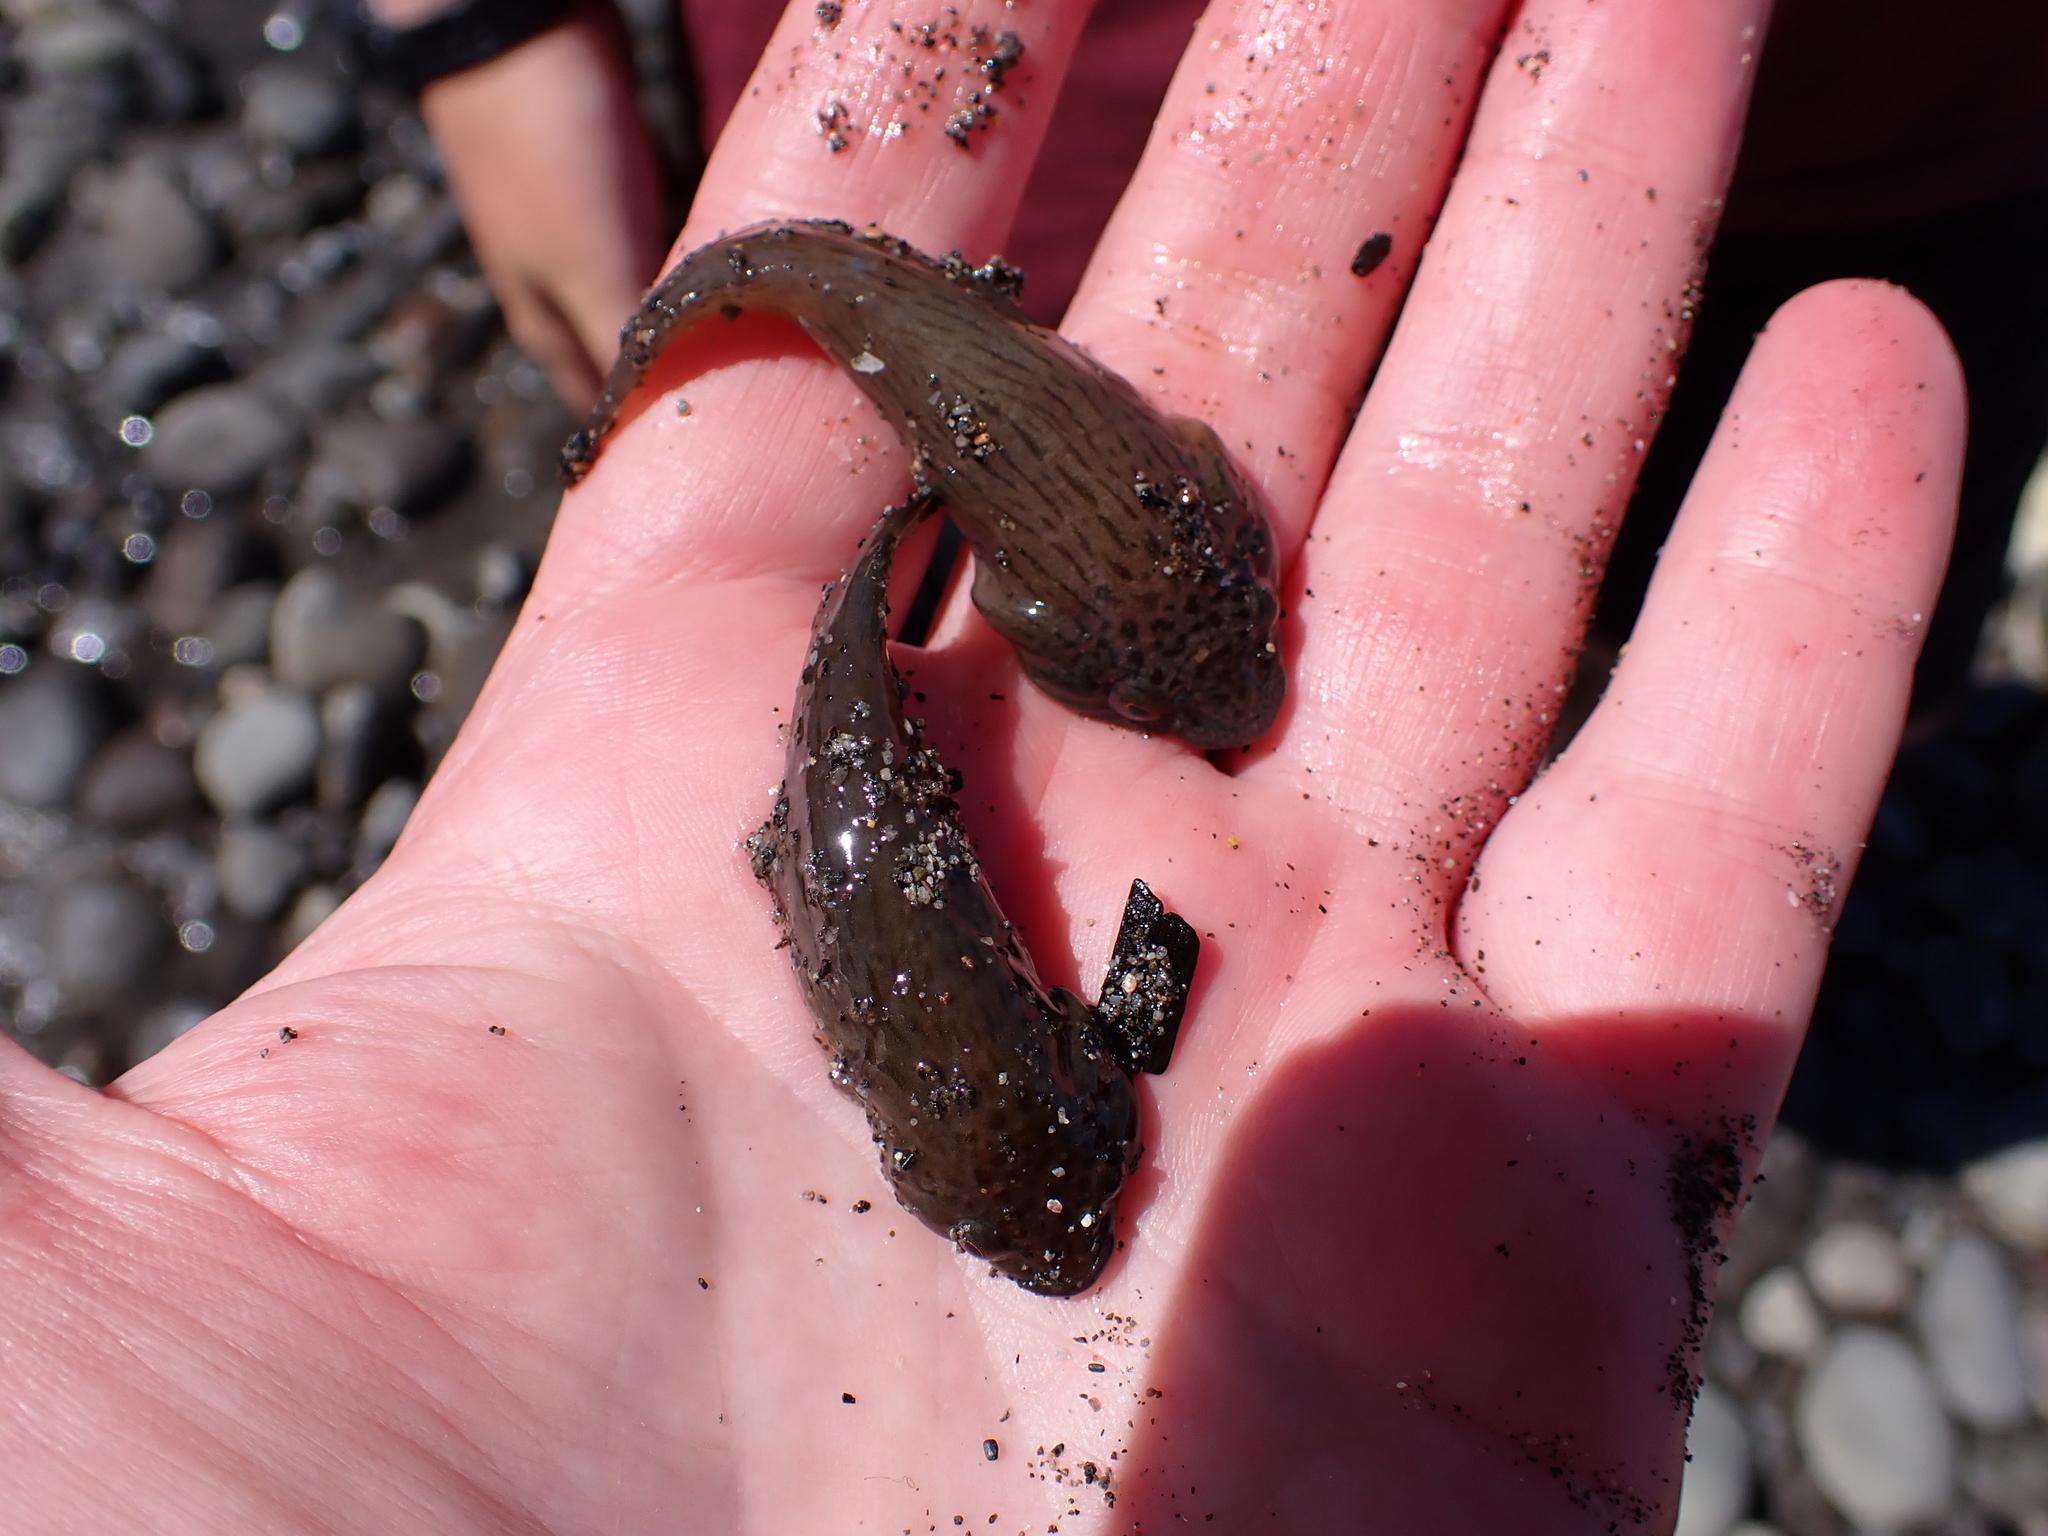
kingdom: Animalia
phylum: Chordata
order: Gobiesociformes
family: Gobiesocidae
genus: Trachelochismus
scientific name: Trachelochismus pinnulatus
